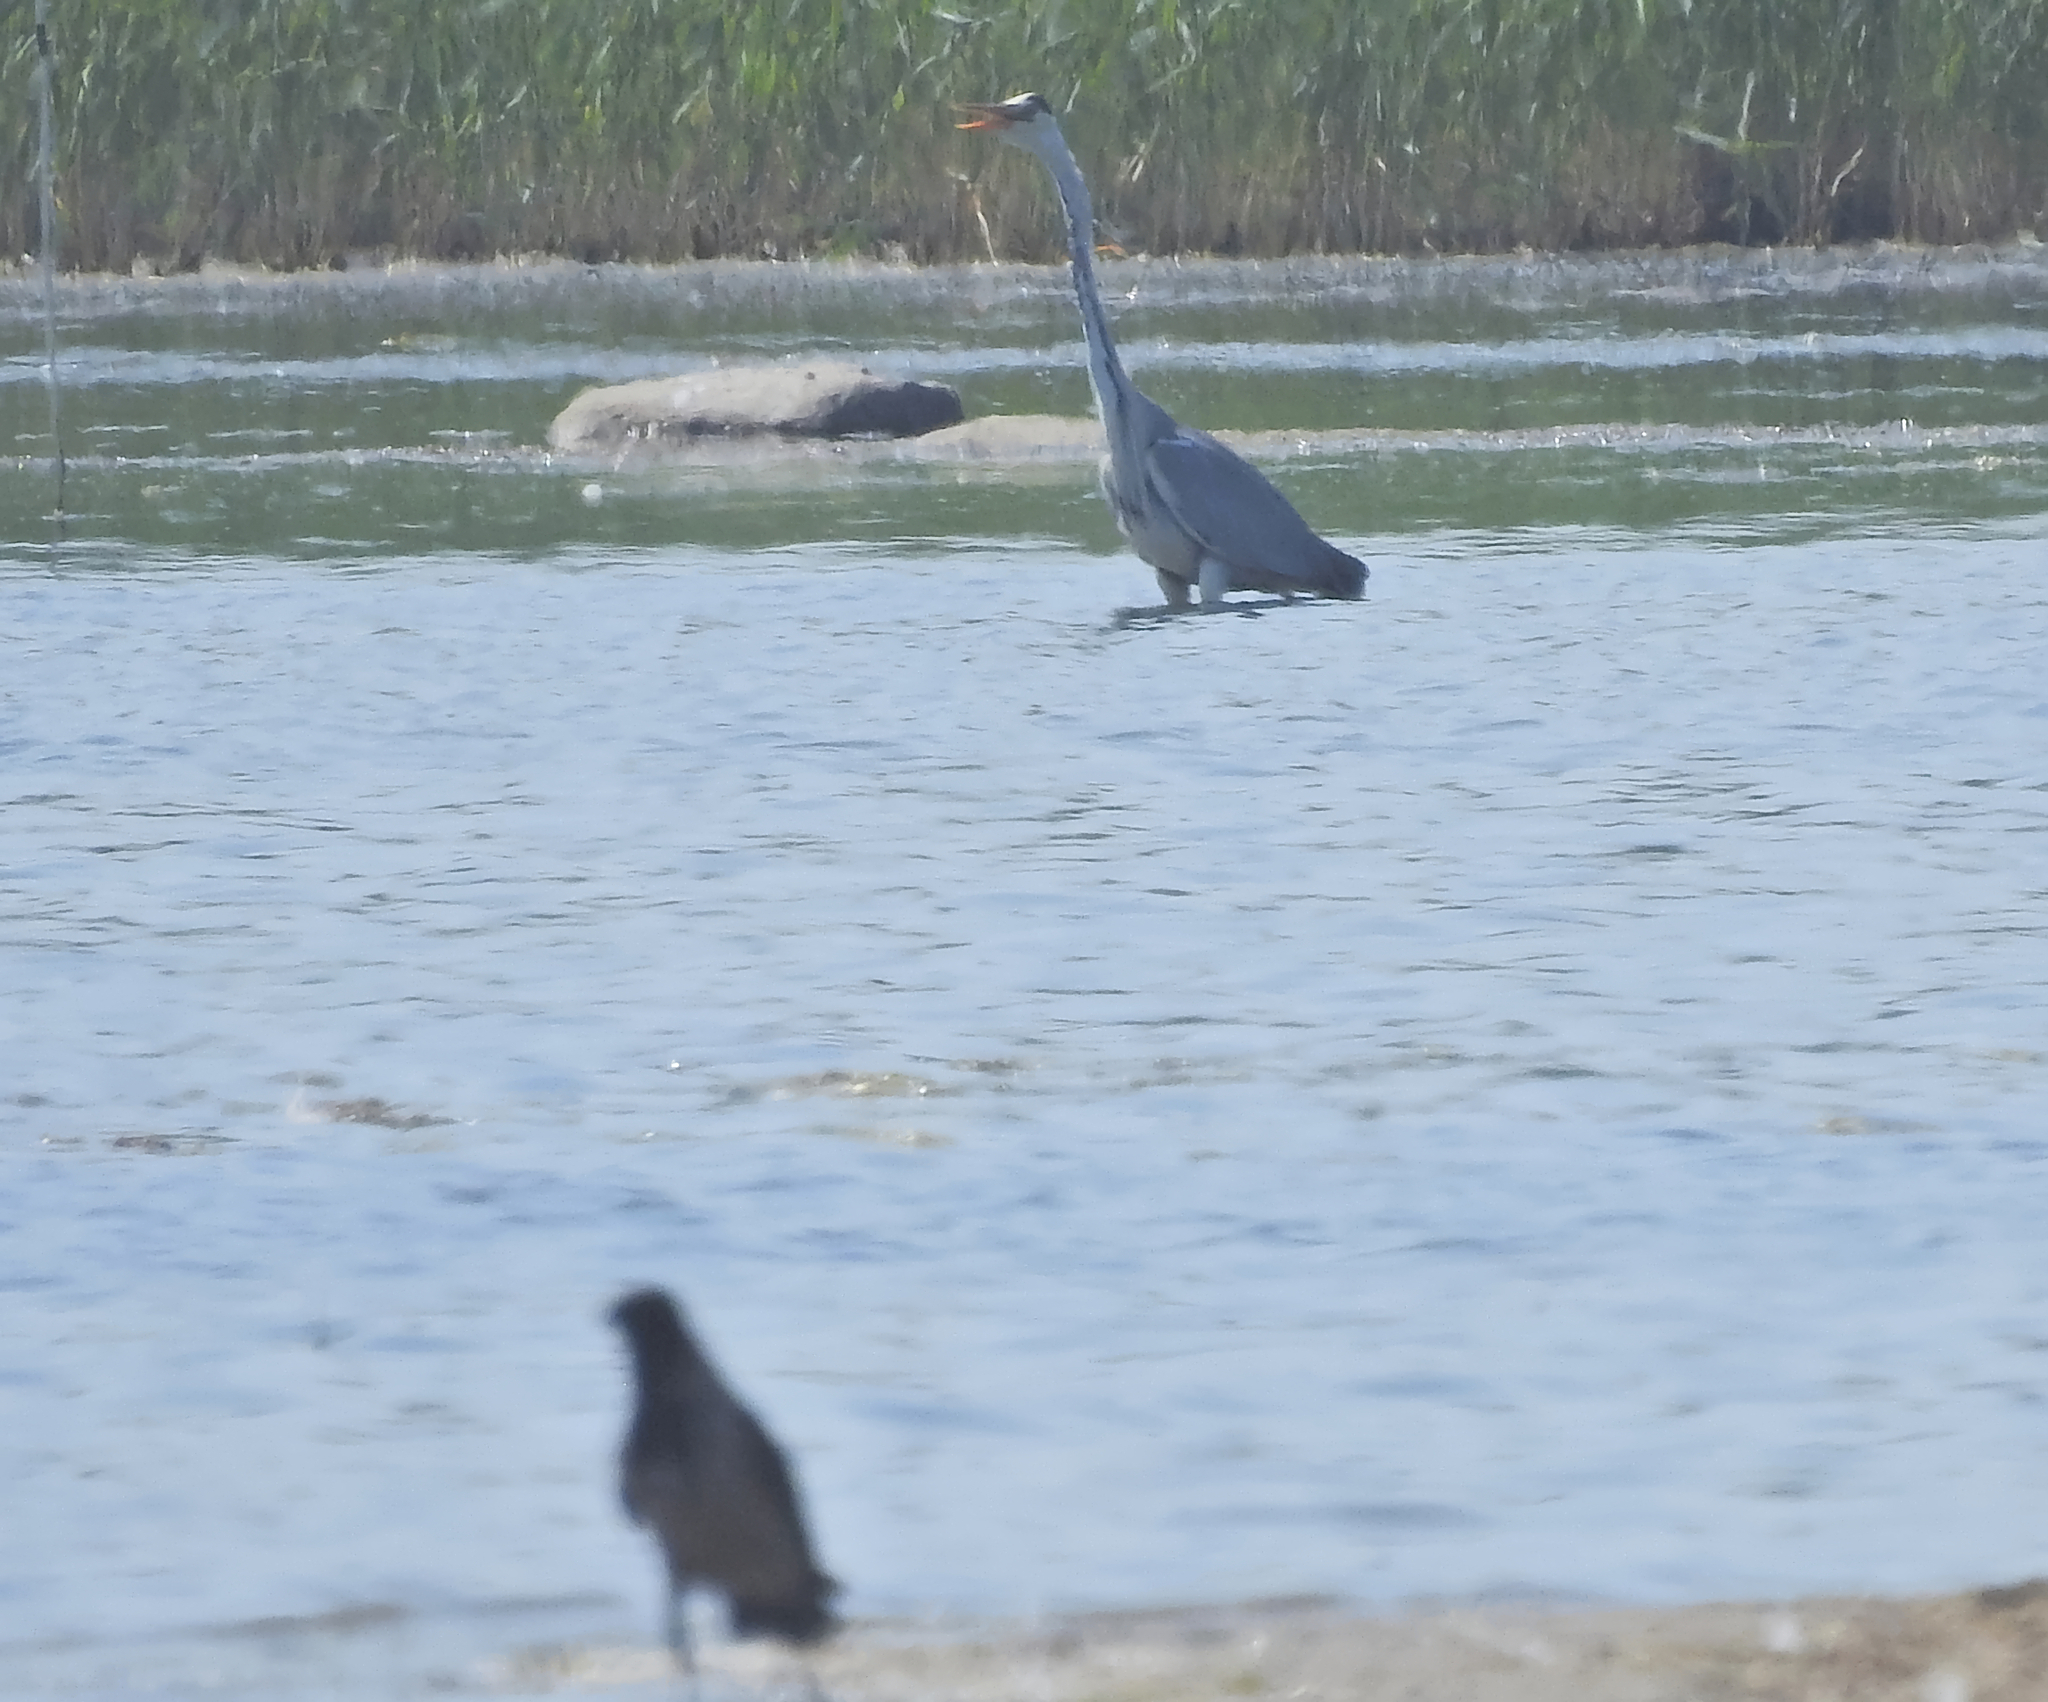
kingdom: Animalia
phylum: Chordata
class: Aves
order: Passeriformes
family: Corvidae
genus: Corvus
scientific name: Corvus cornix
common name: Hooded crow
